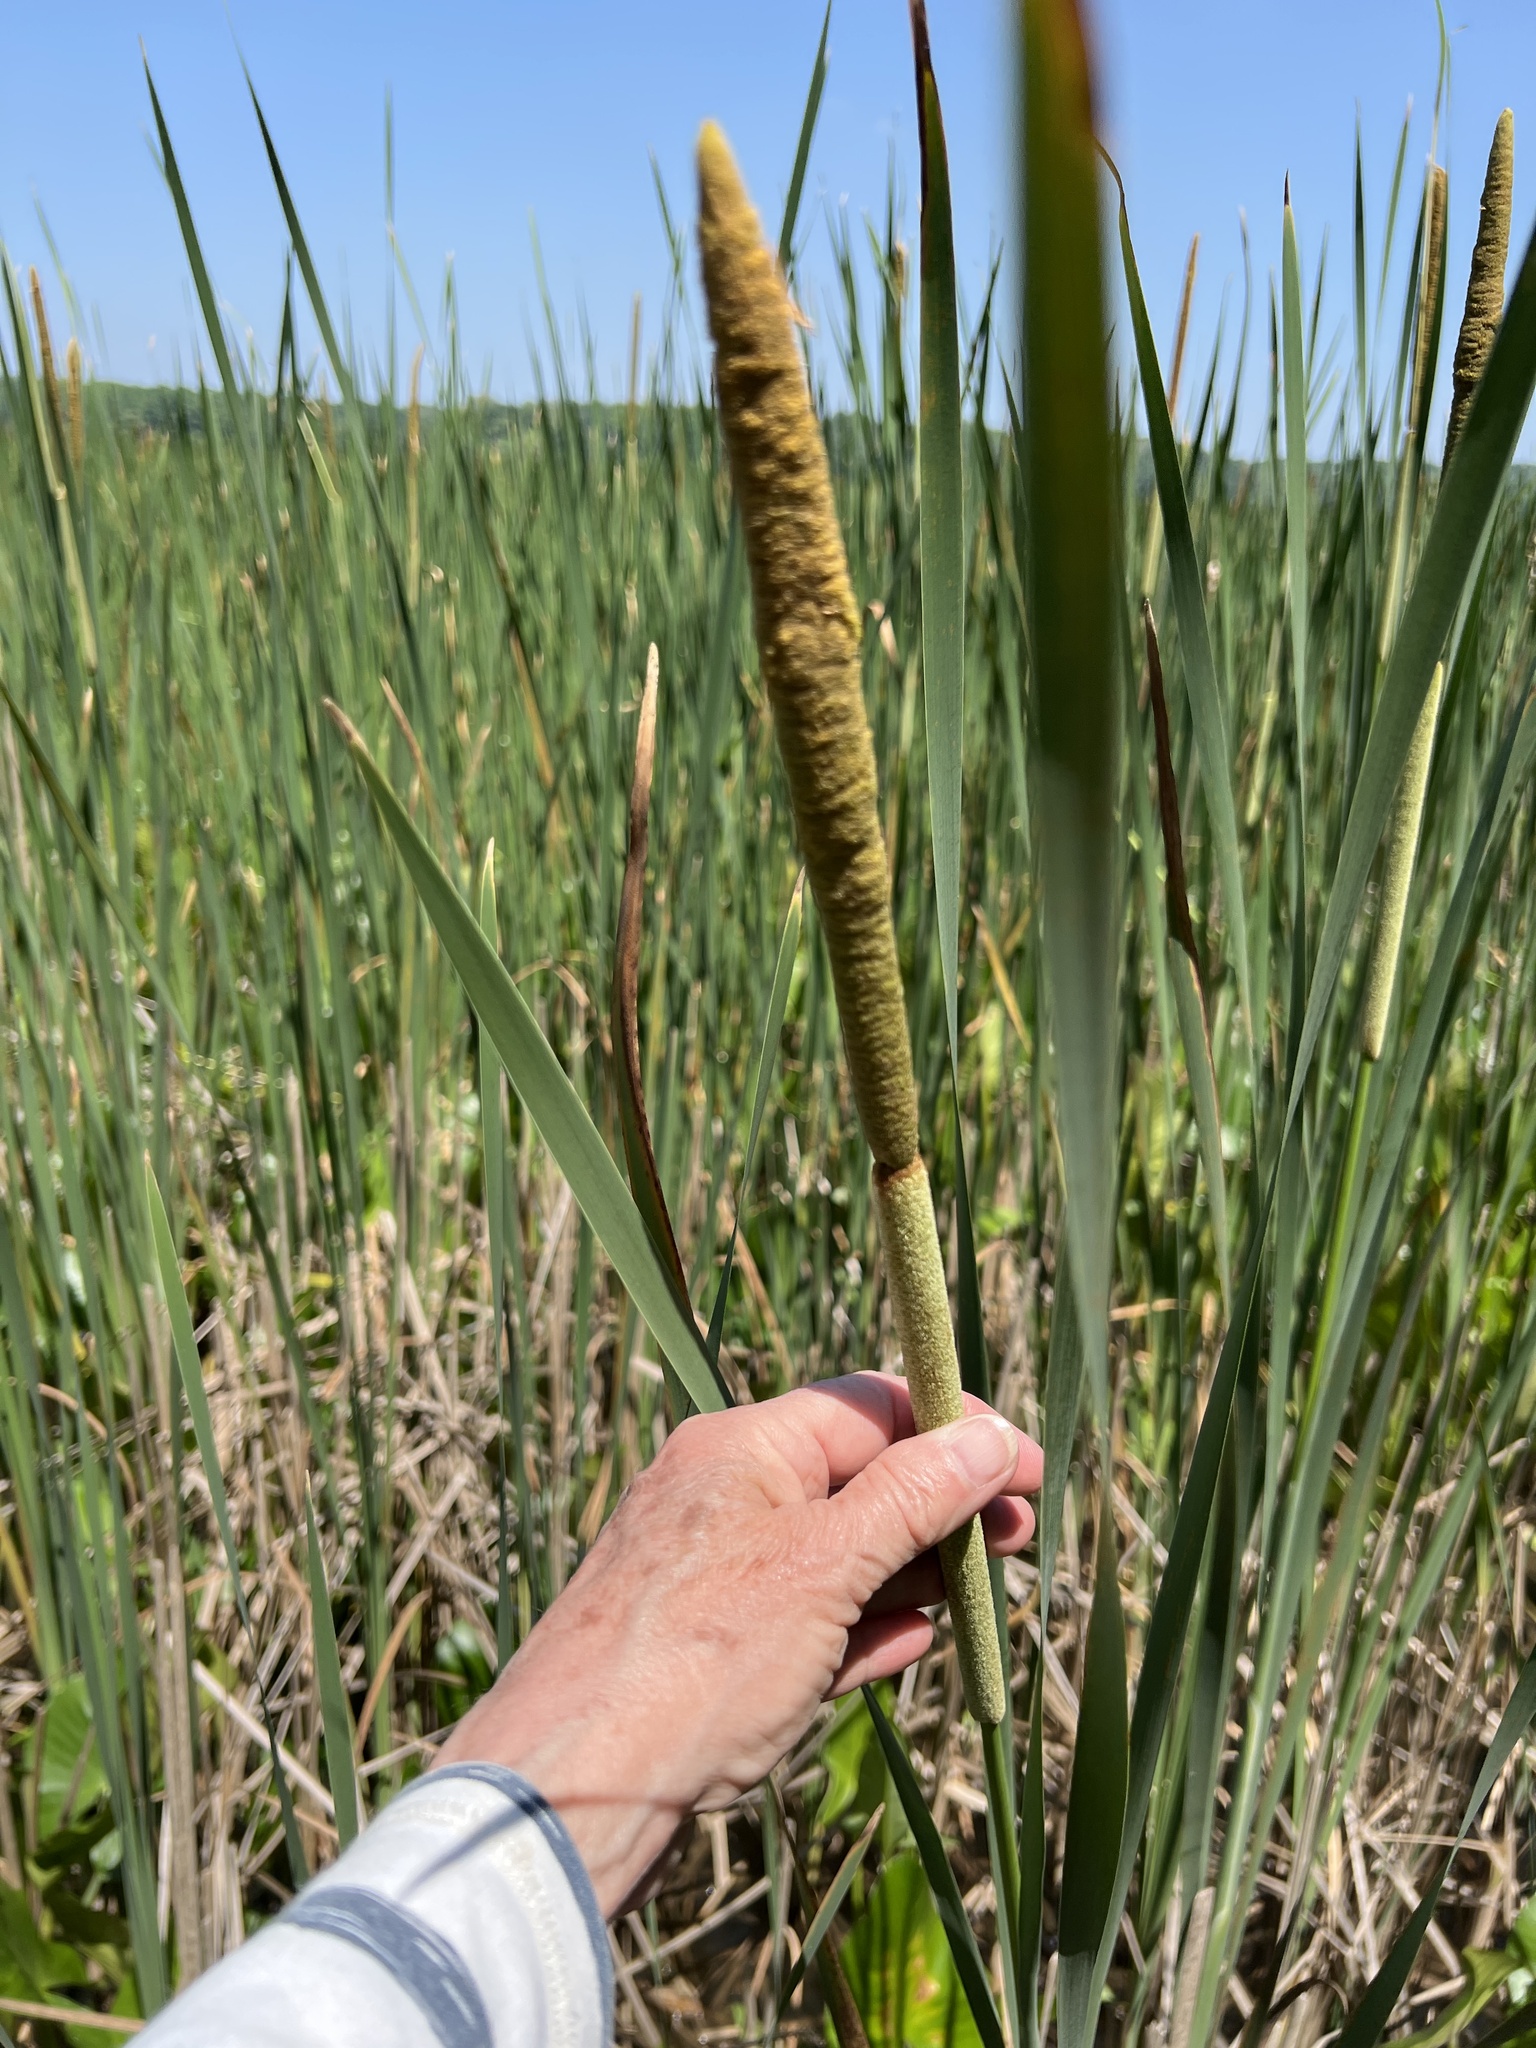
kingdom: Plantae
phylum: Tracheophyta
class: Liliopsida
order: Poales
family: Typhaceae
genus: Typha
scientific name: Typha angustifolia
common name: Lesser bulrush
